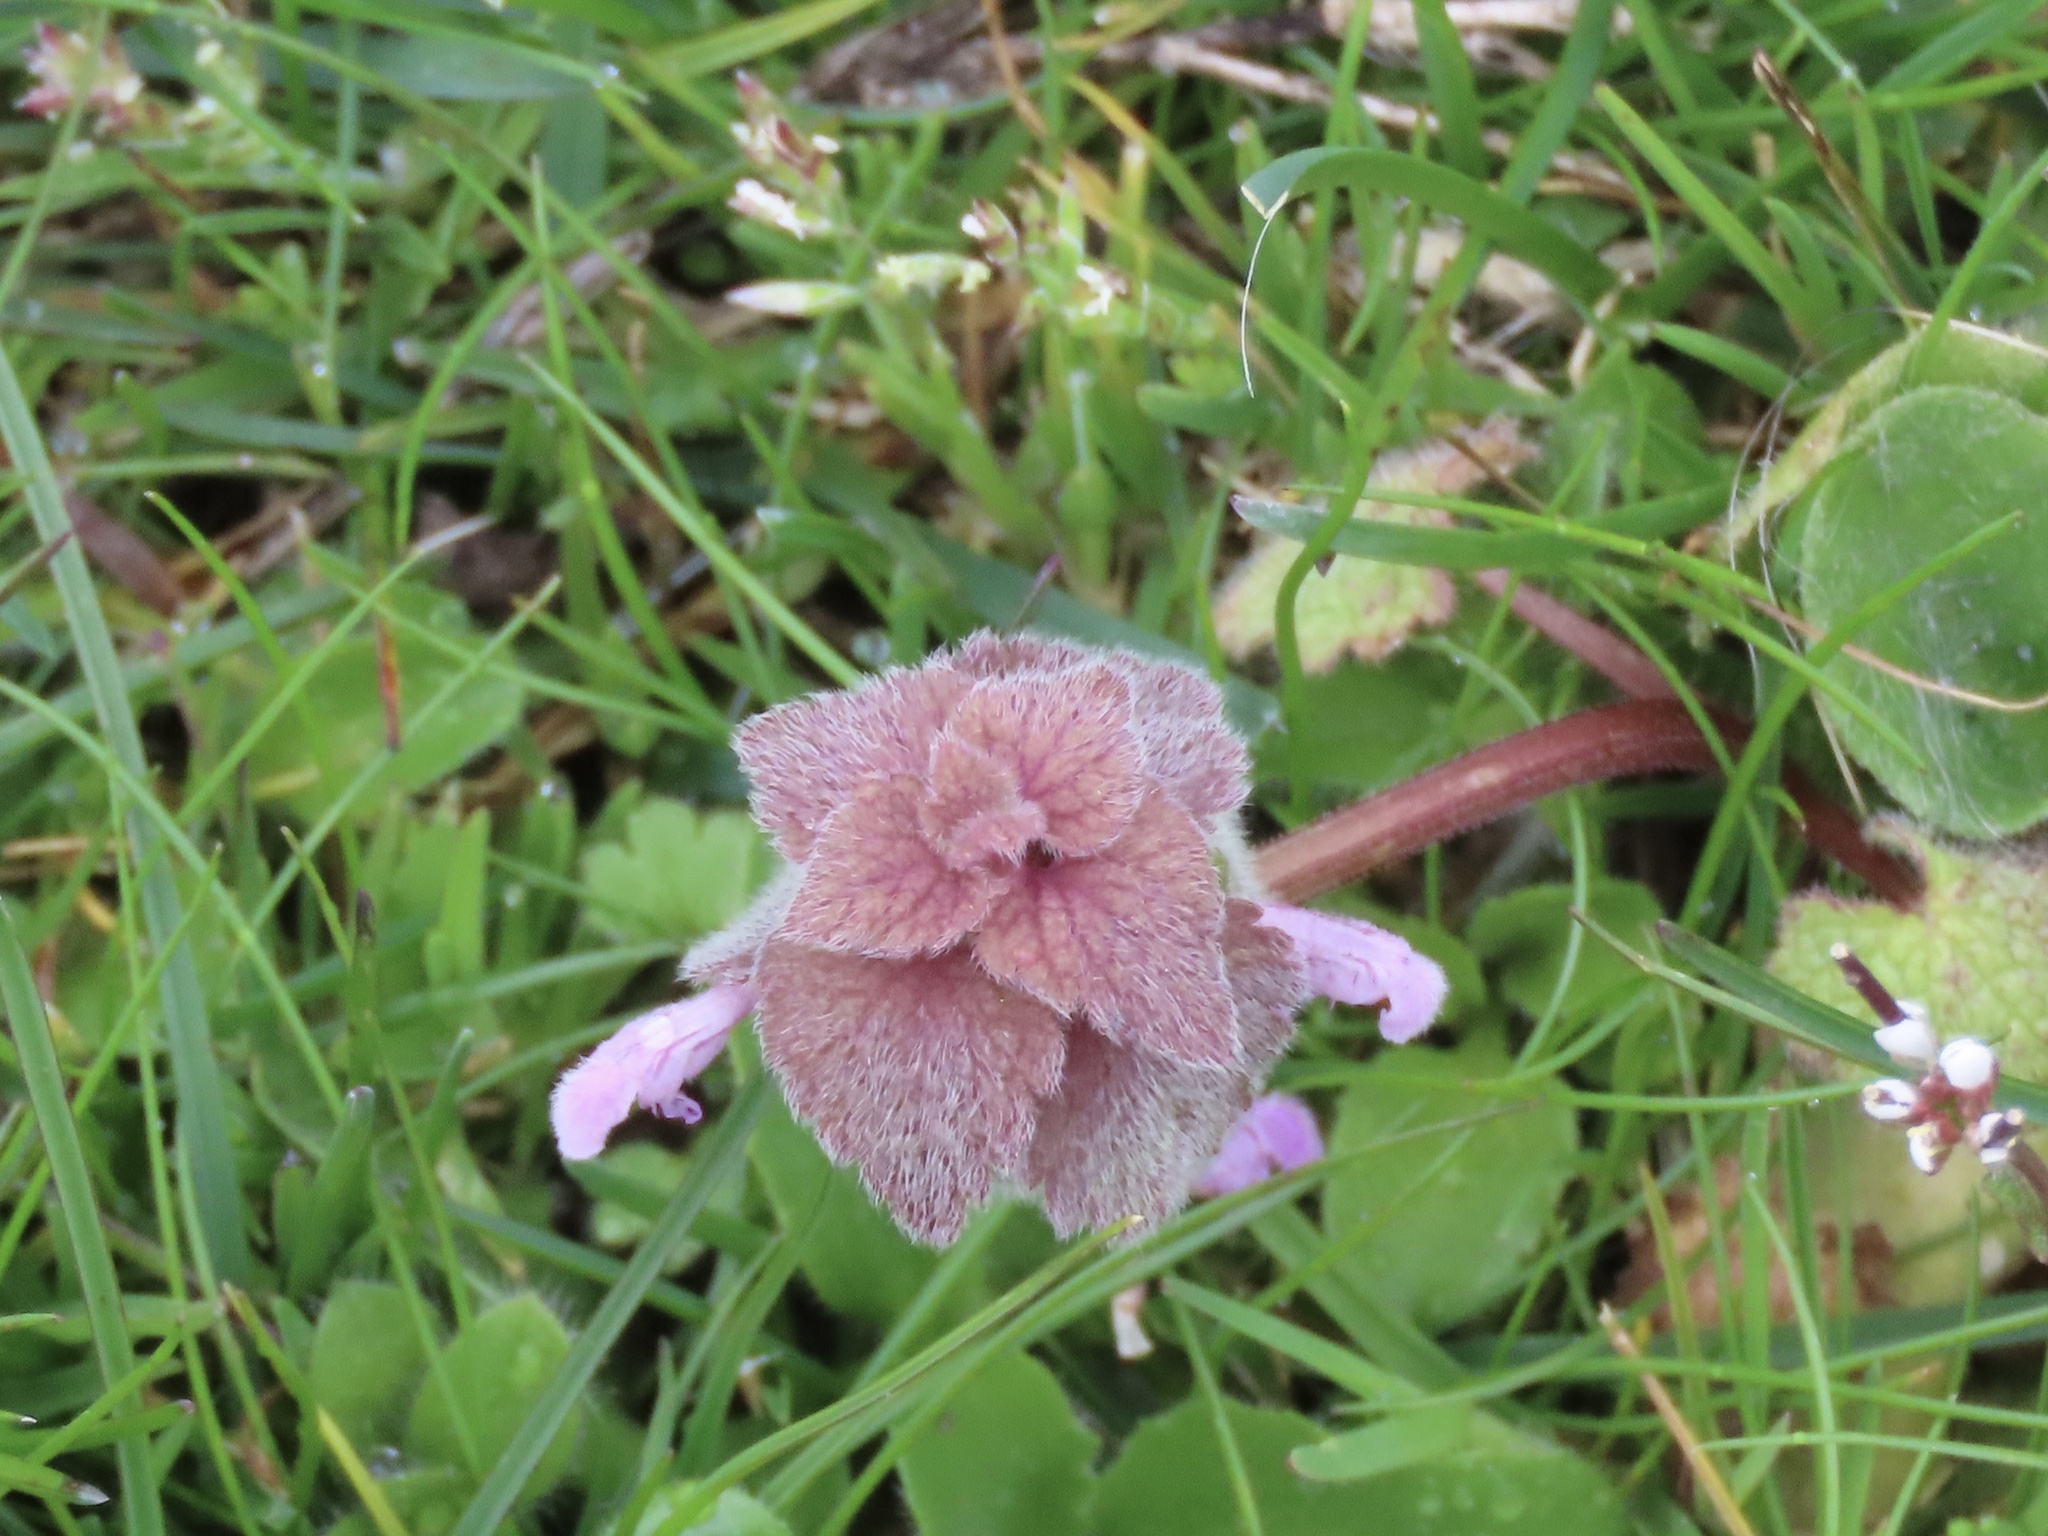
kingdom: Plantae
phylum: Tracheophyta
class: Magnoliopsida
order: Lamiales
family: Lamiaceae
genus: Lamium
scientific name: Lamium purpureum
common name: Red dead-nettle
